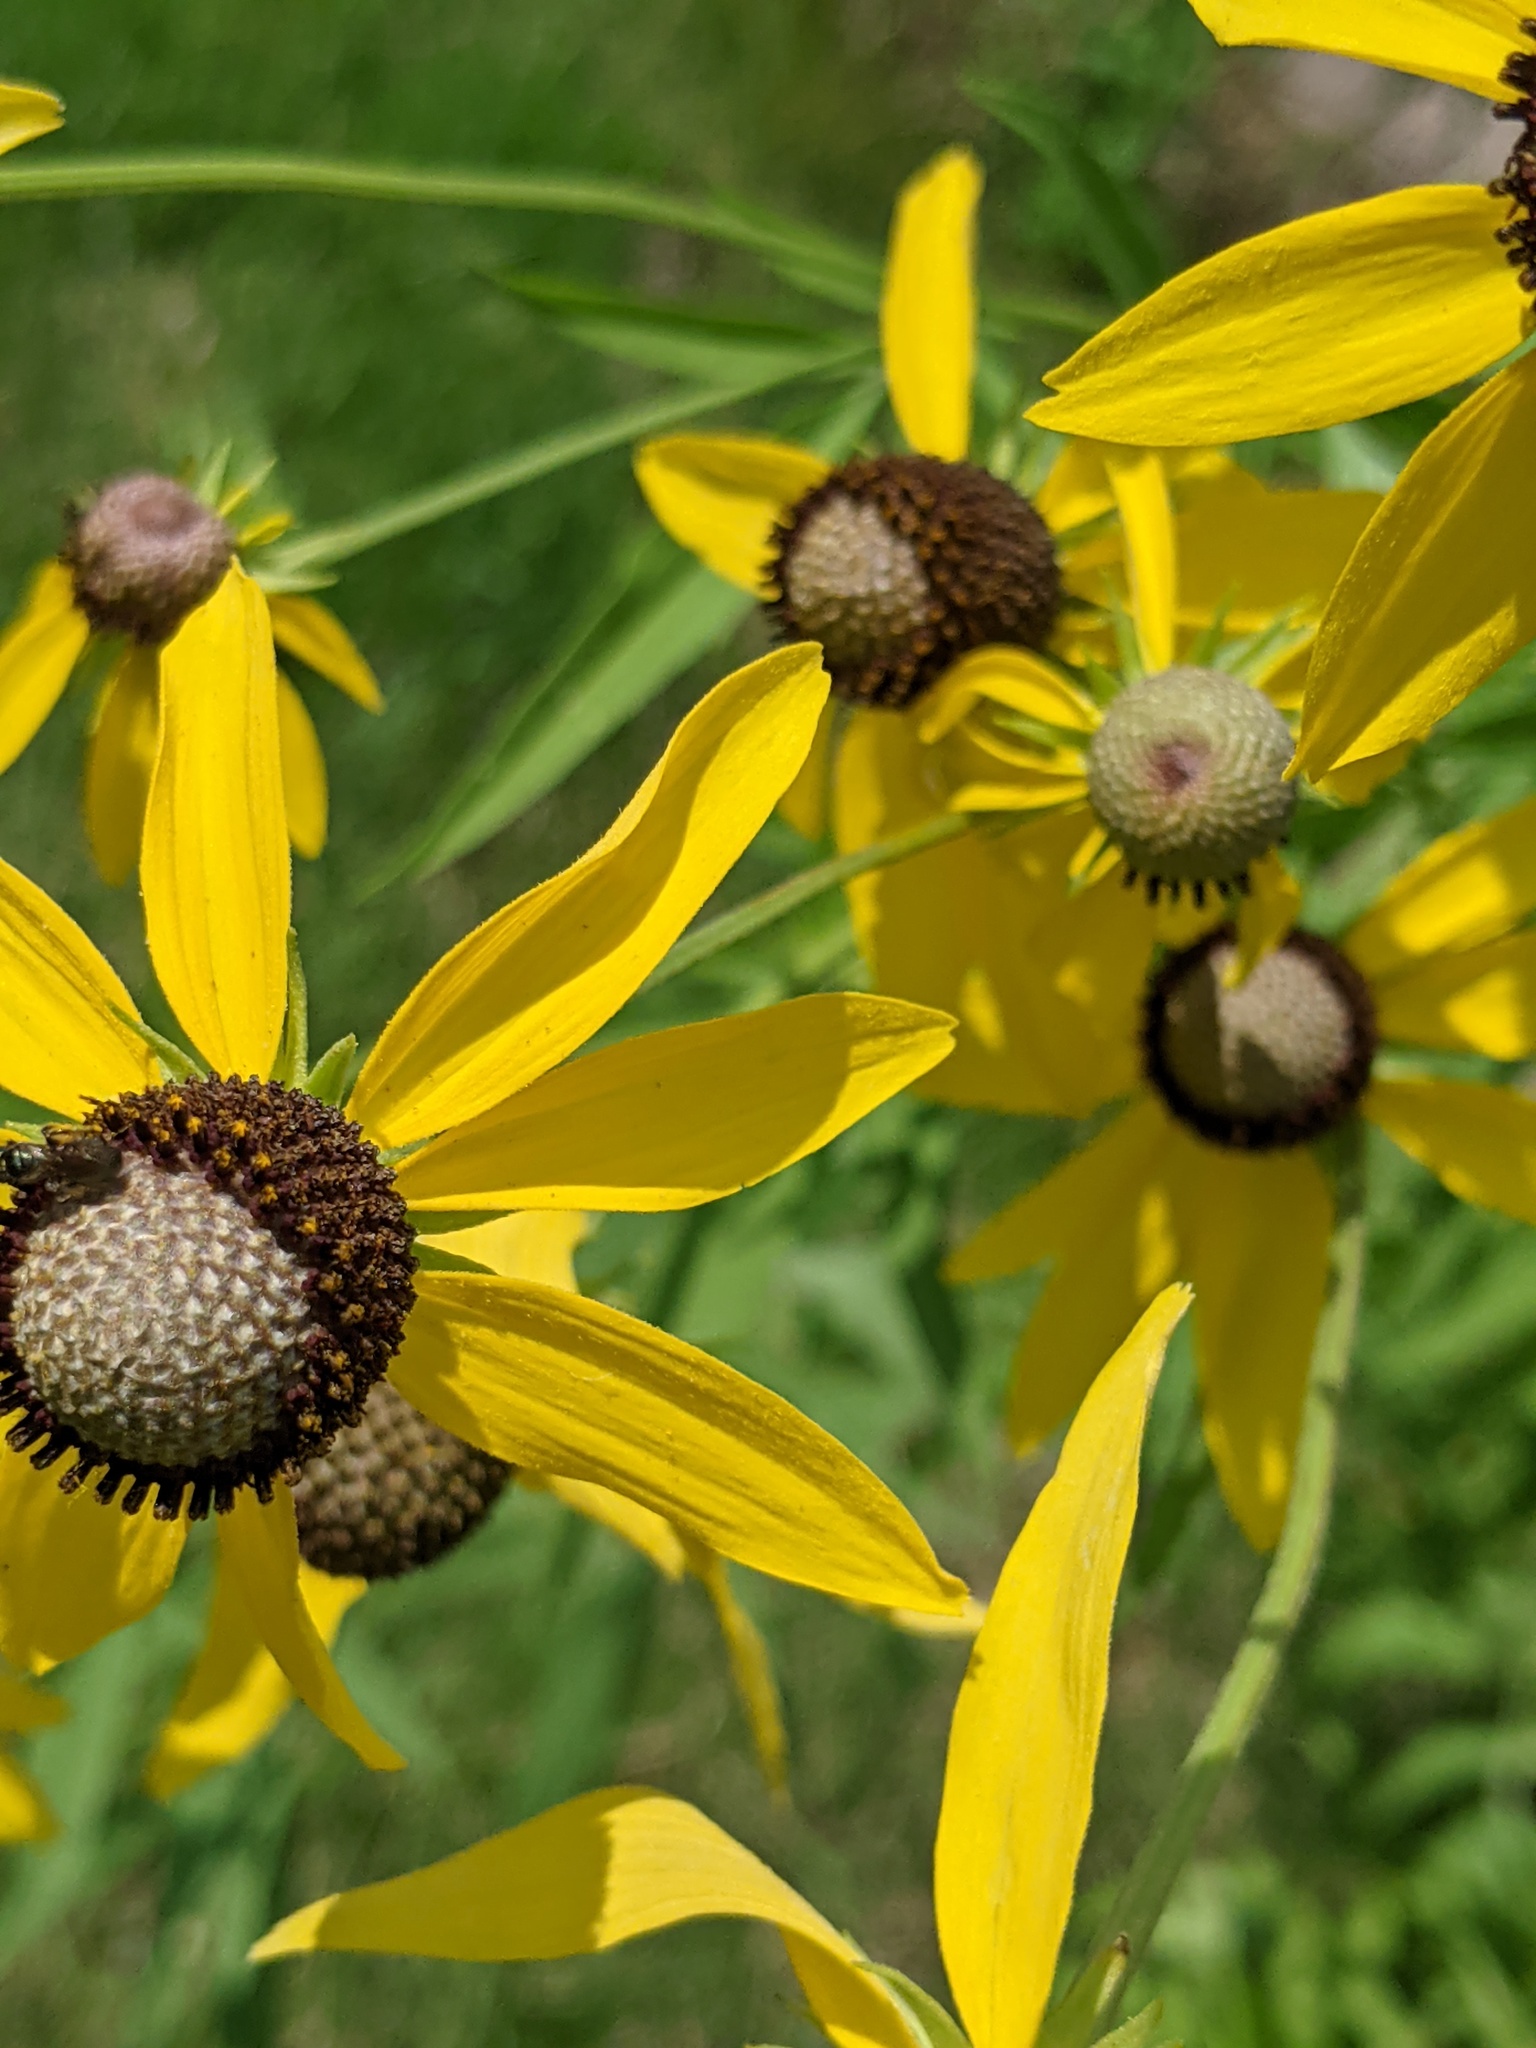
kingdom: Animalia
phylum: Arthropoda
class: Insecta
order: Hymenoptera
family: Apidae
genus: Zadontomerus
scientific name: Zadontomerus
